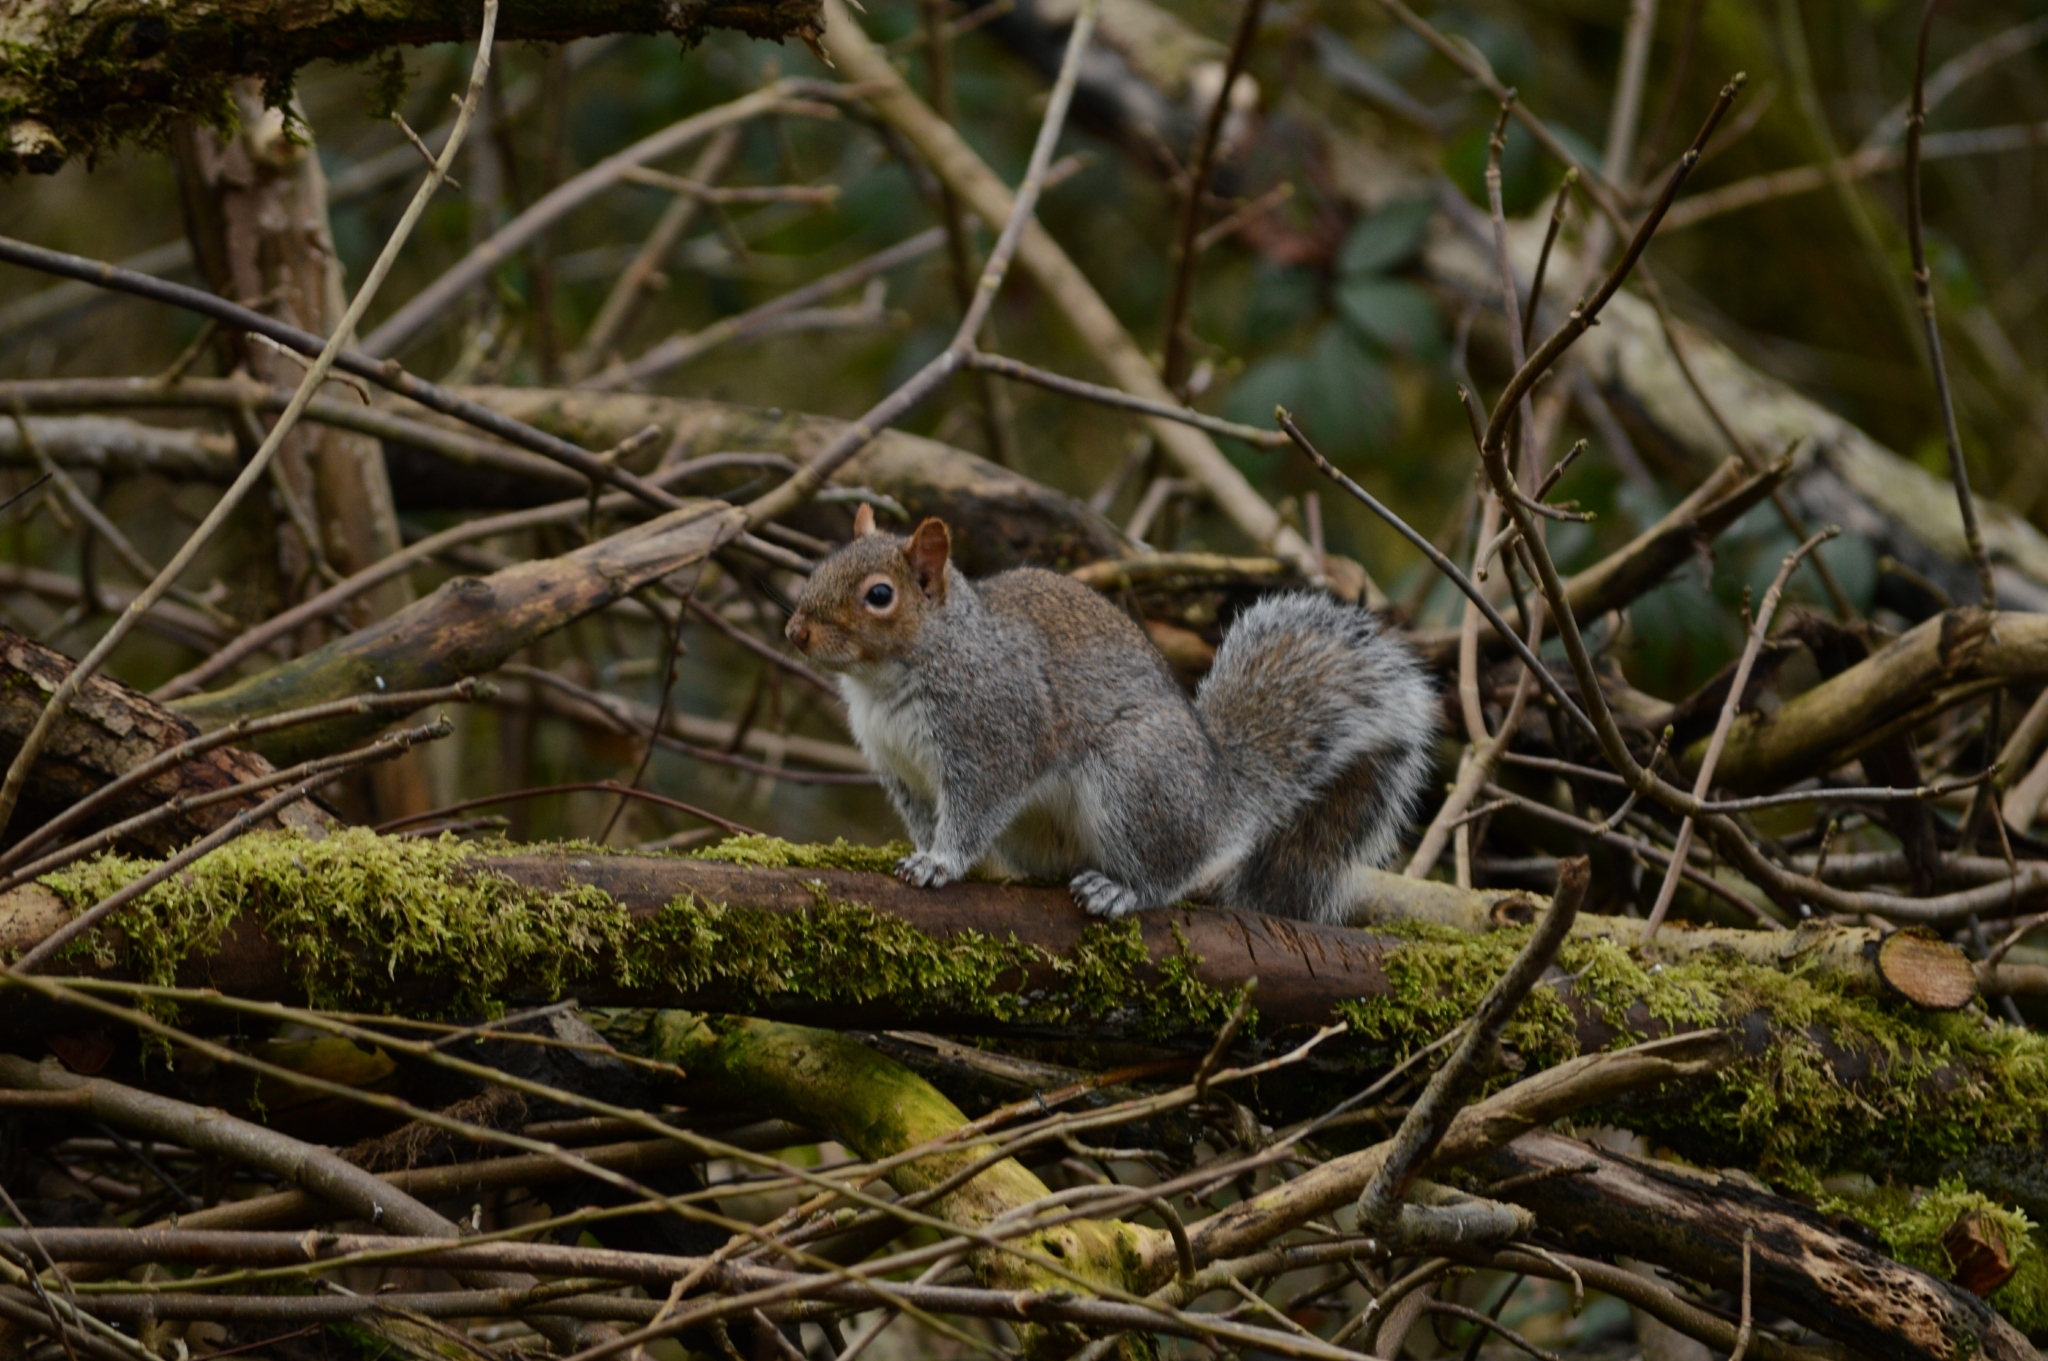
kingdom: Animalia
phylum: Chordata
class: Mammalia
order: Rodentia
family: Sciuridae
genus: Sciurus
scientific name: Sciurus carolinensis
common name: Eastern gray squirrel
